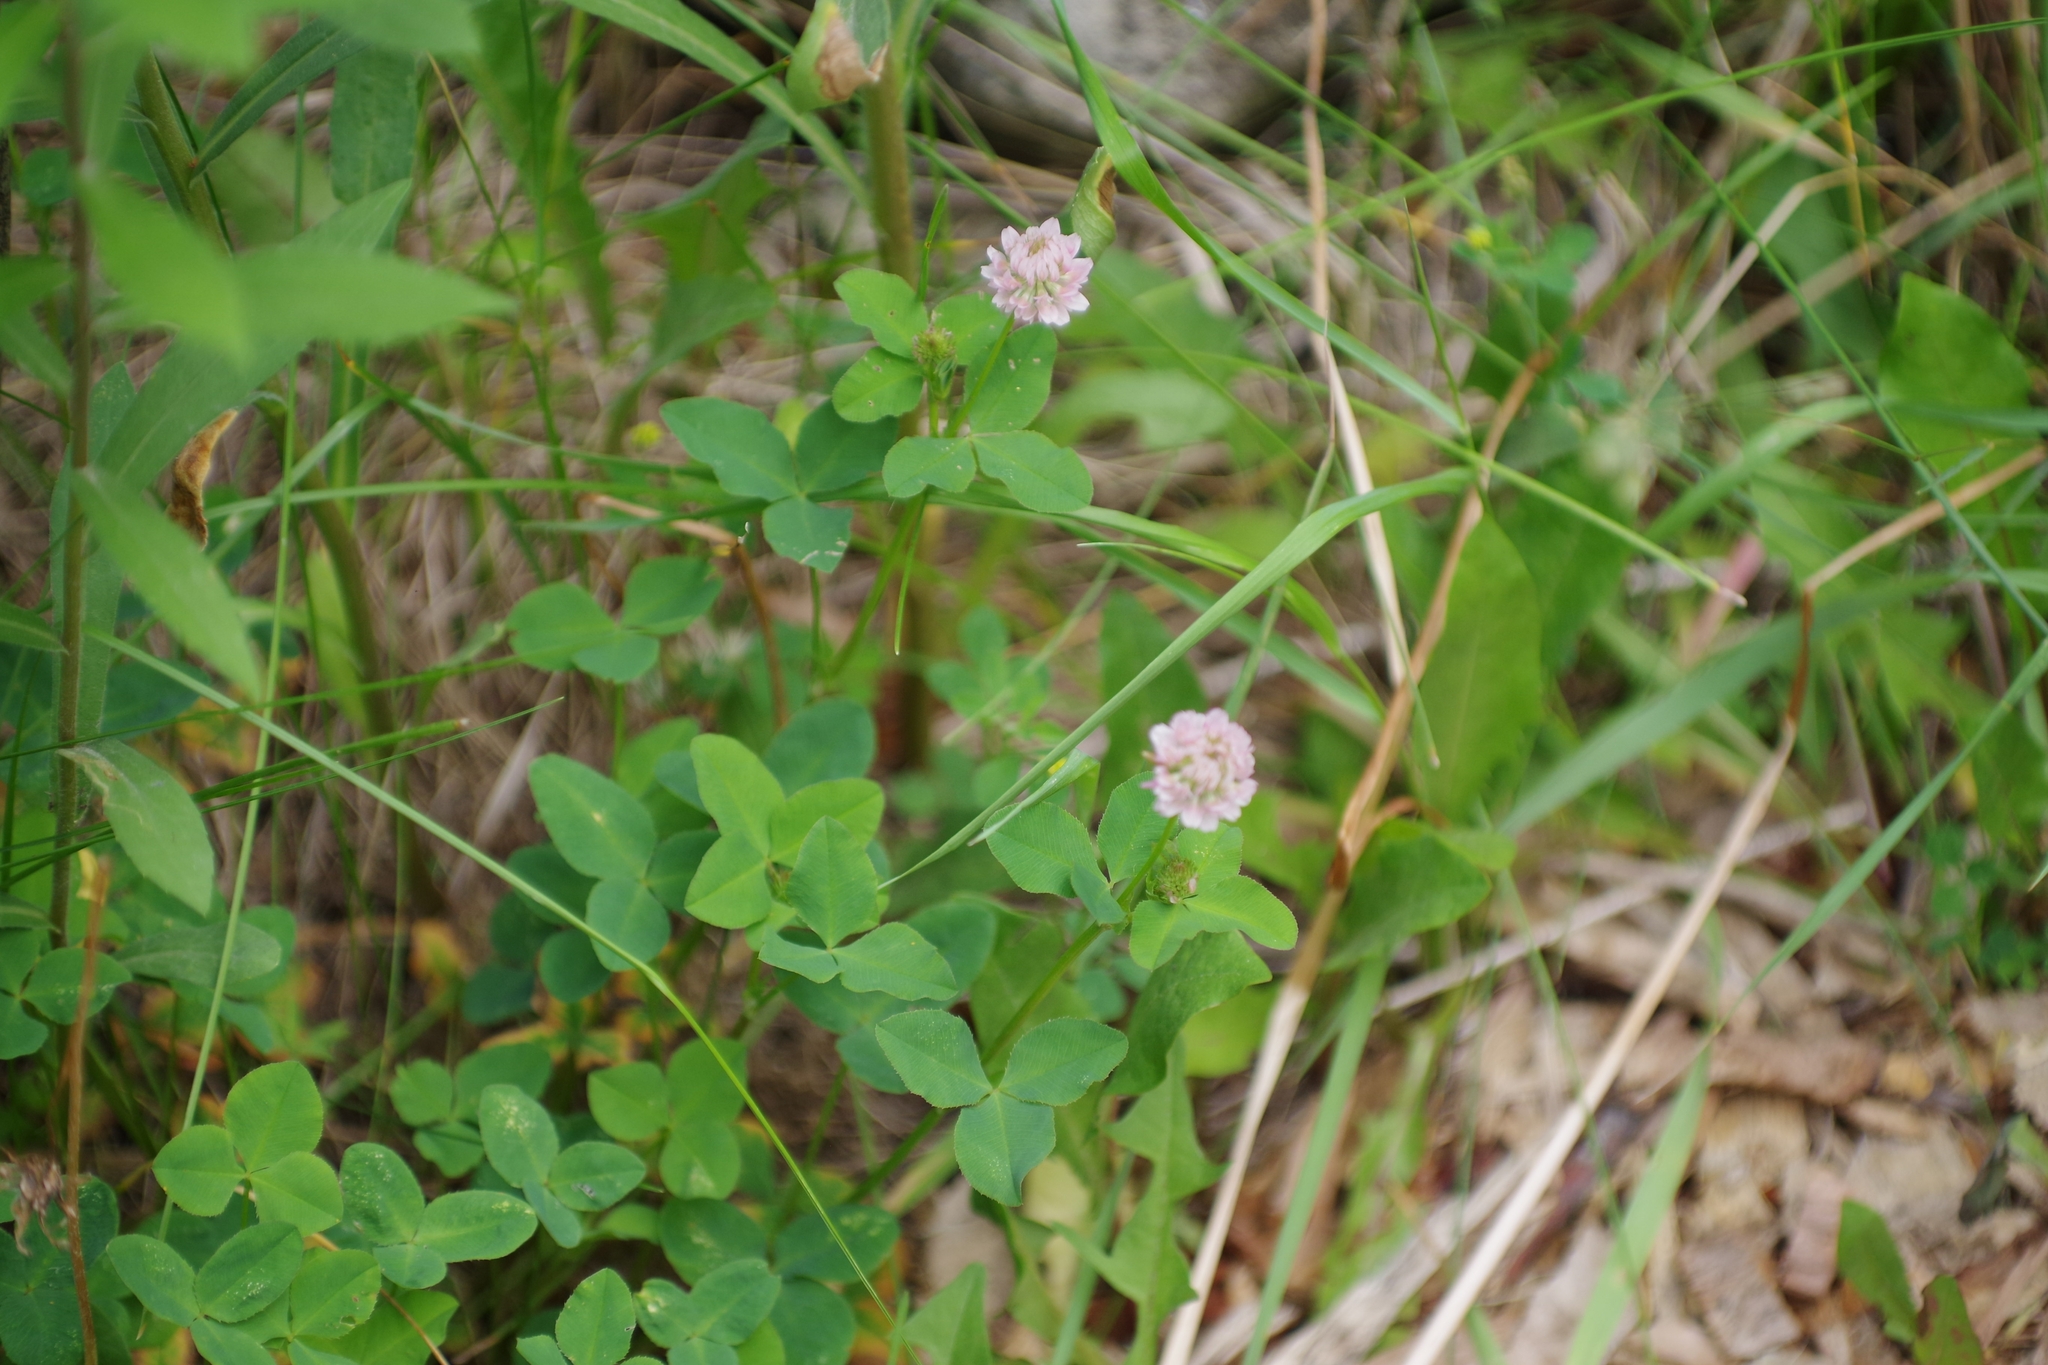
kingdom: Plantae
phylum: Tracheophyta
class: Magnoliopsida
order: Fabales
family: Fabaceae
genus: Trifolium
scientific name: Trifolium hybridum
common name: Alsike clover
